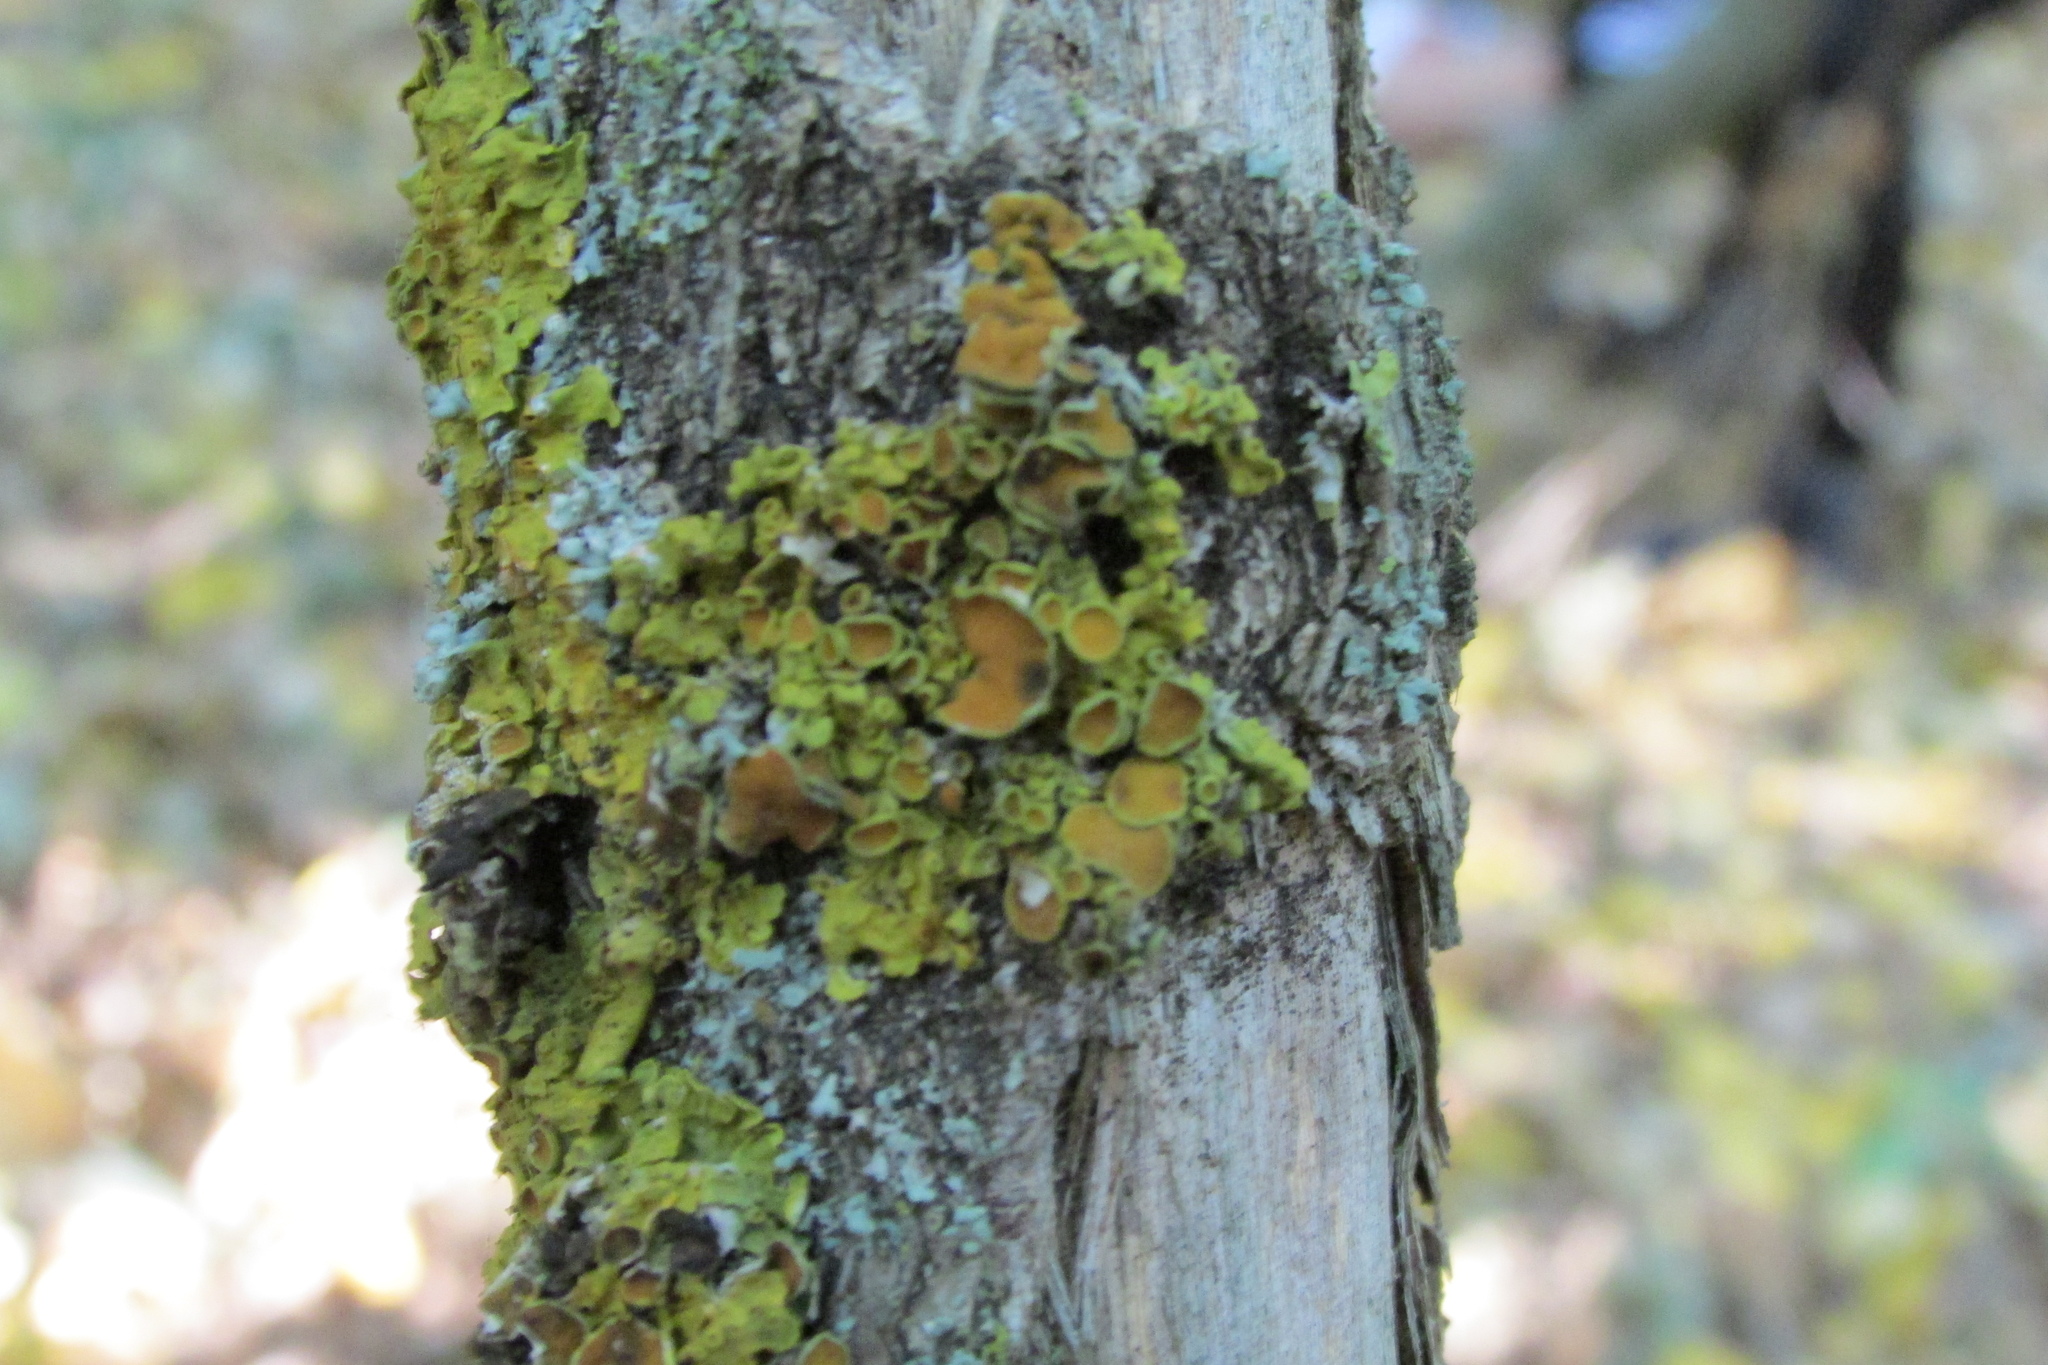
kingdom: Fungi
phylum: Ascomycota
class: Lecanoromycetes
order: Teloschistales
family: Teloschistaceae
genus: Xanthoria
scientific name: Xanthoria parietina
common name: Common orange lichen
